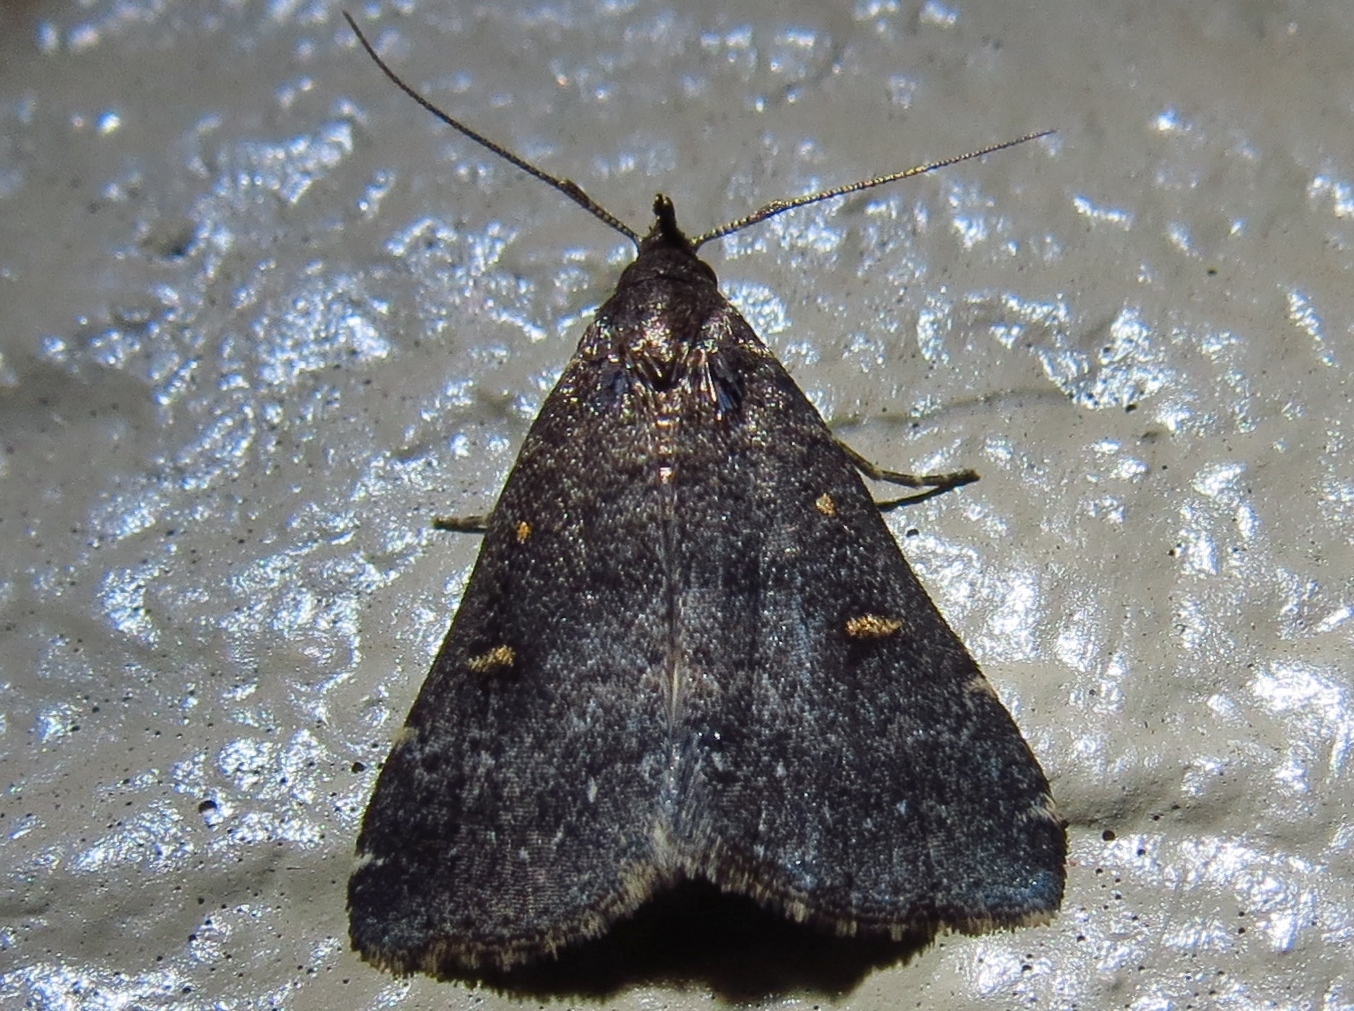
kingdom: Animalia
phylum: Arthropoda
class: Insecta
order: Lepidoptera
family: Erebidae
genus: Tetanolita
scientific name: Tetanolita mynesalis
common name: Smoky tetanolita moth
